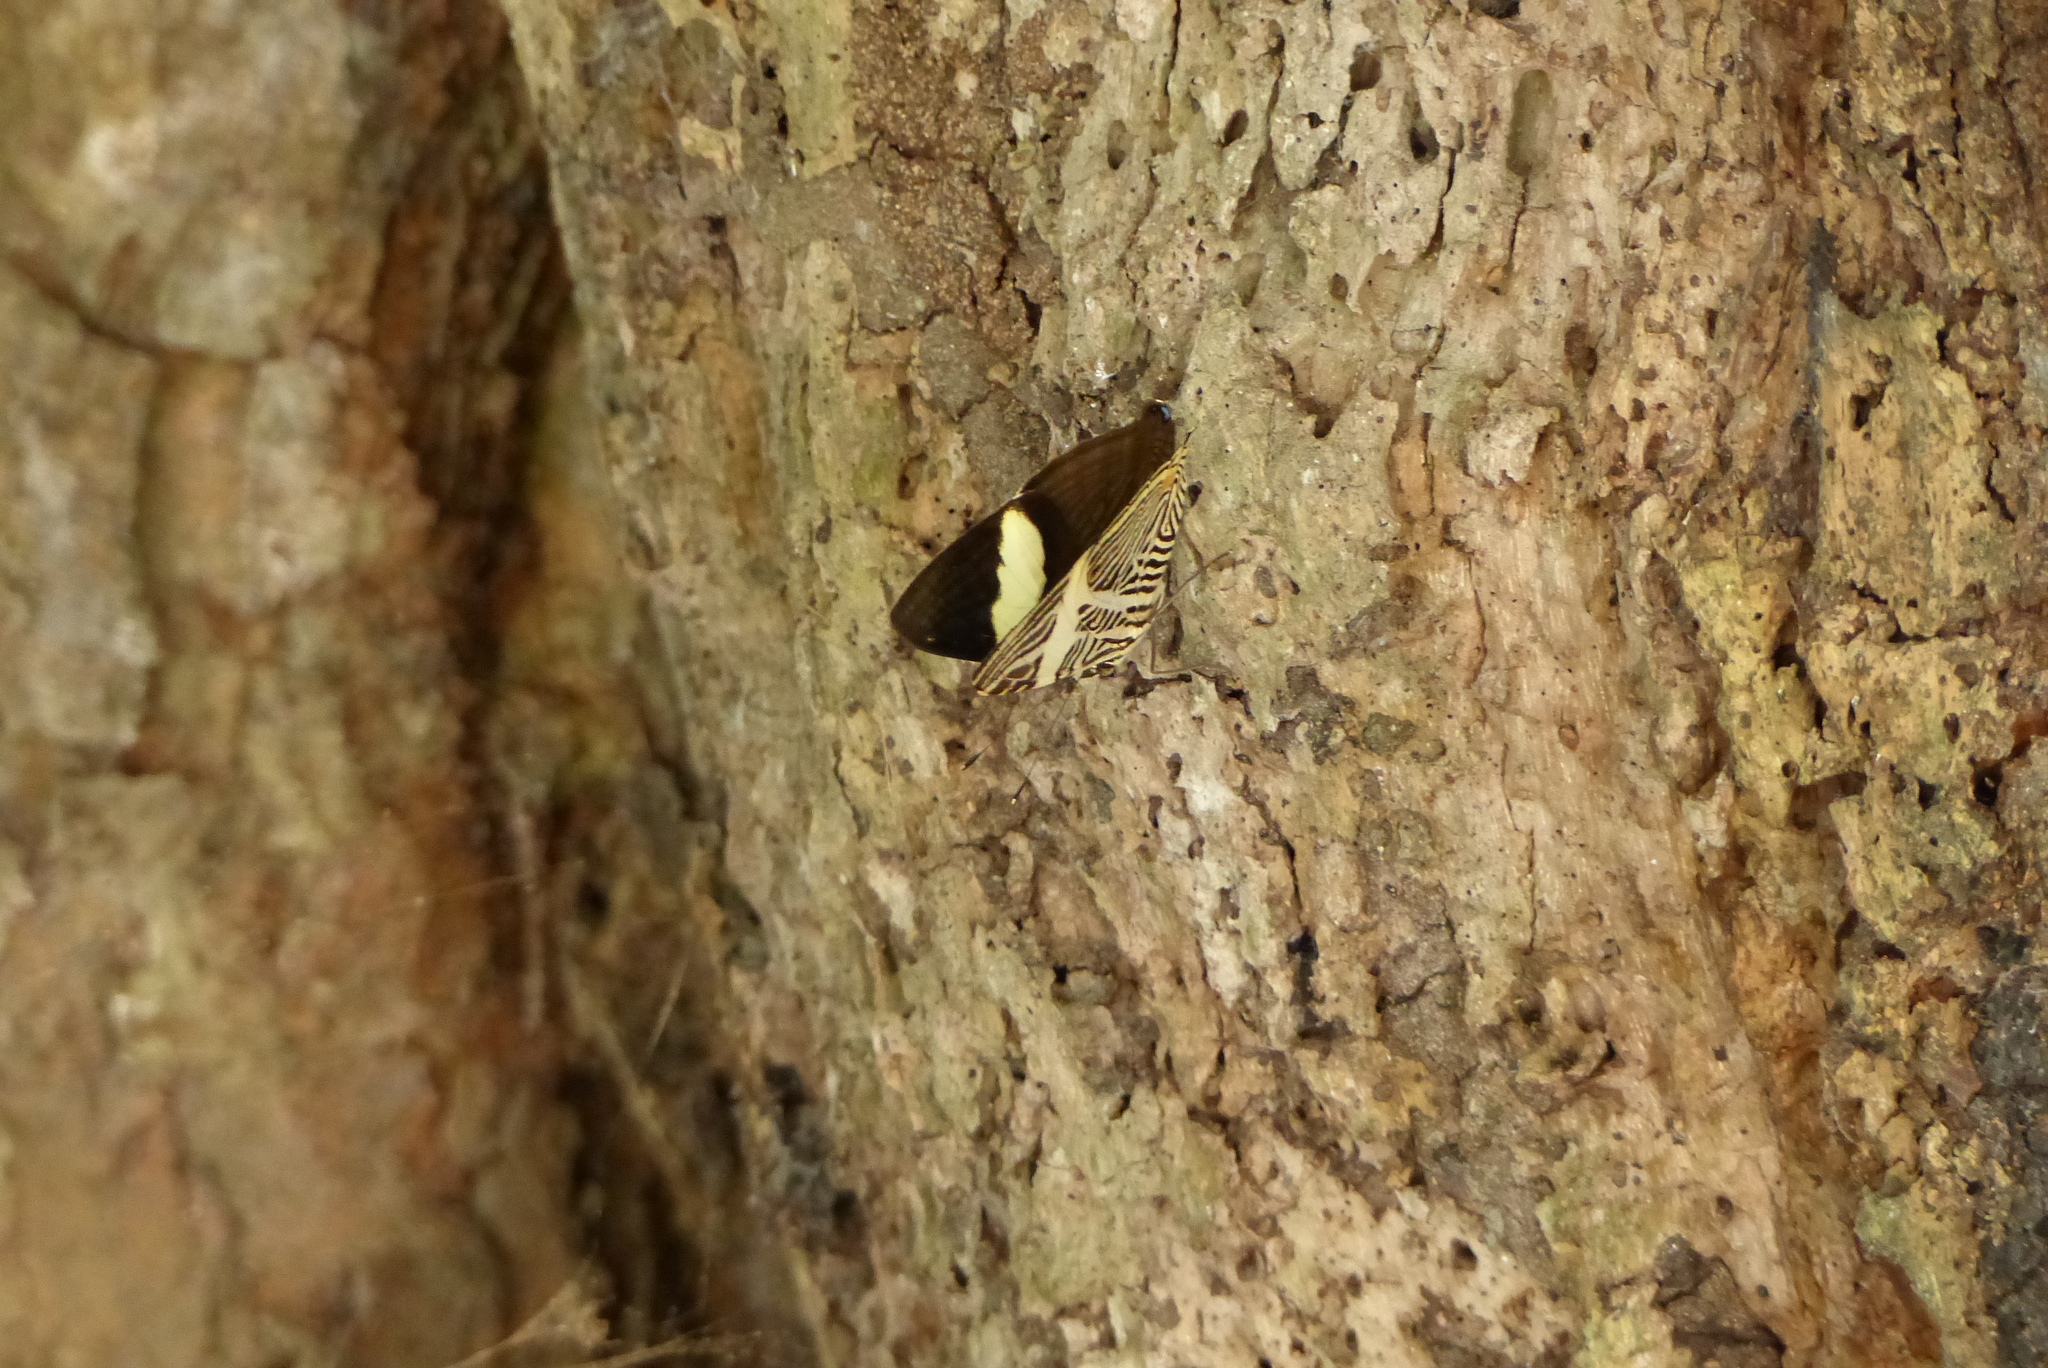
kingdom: Animalia
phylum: Arthropoda
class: Insecta
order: Lepidoptera
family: Nymphalidae
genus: Colobura
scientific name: Colobura dirce
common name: Dirce beauty
